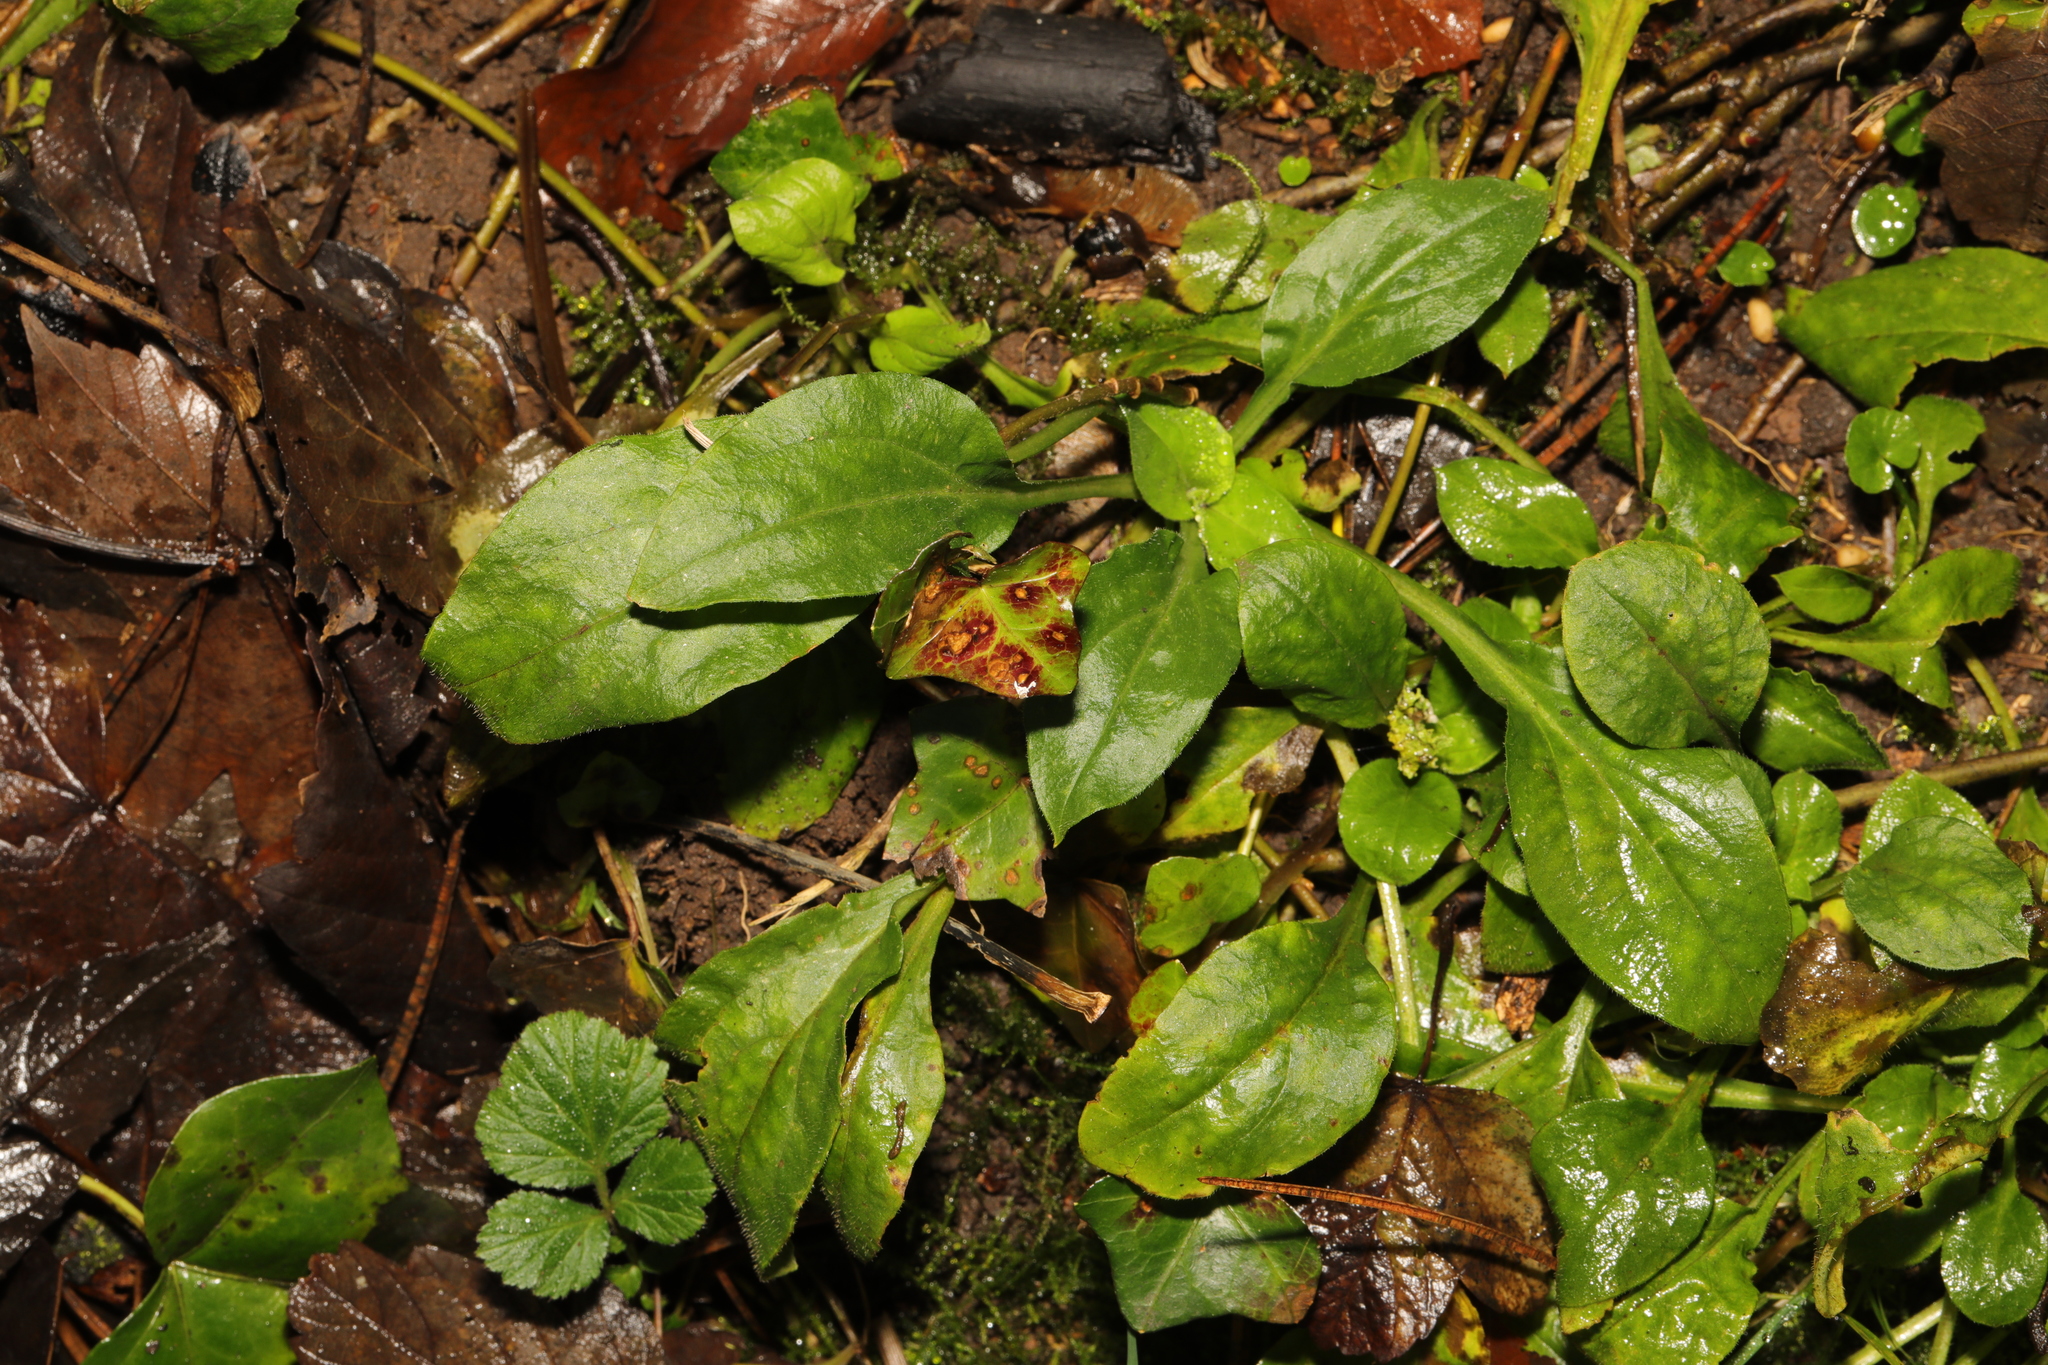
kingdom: Plantae
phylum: Tracheophyta
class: Magnoliopsida
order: Caryophyllales
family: Caryophyllaceae
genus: Silene
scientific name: Silene dioica
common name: Red campion
